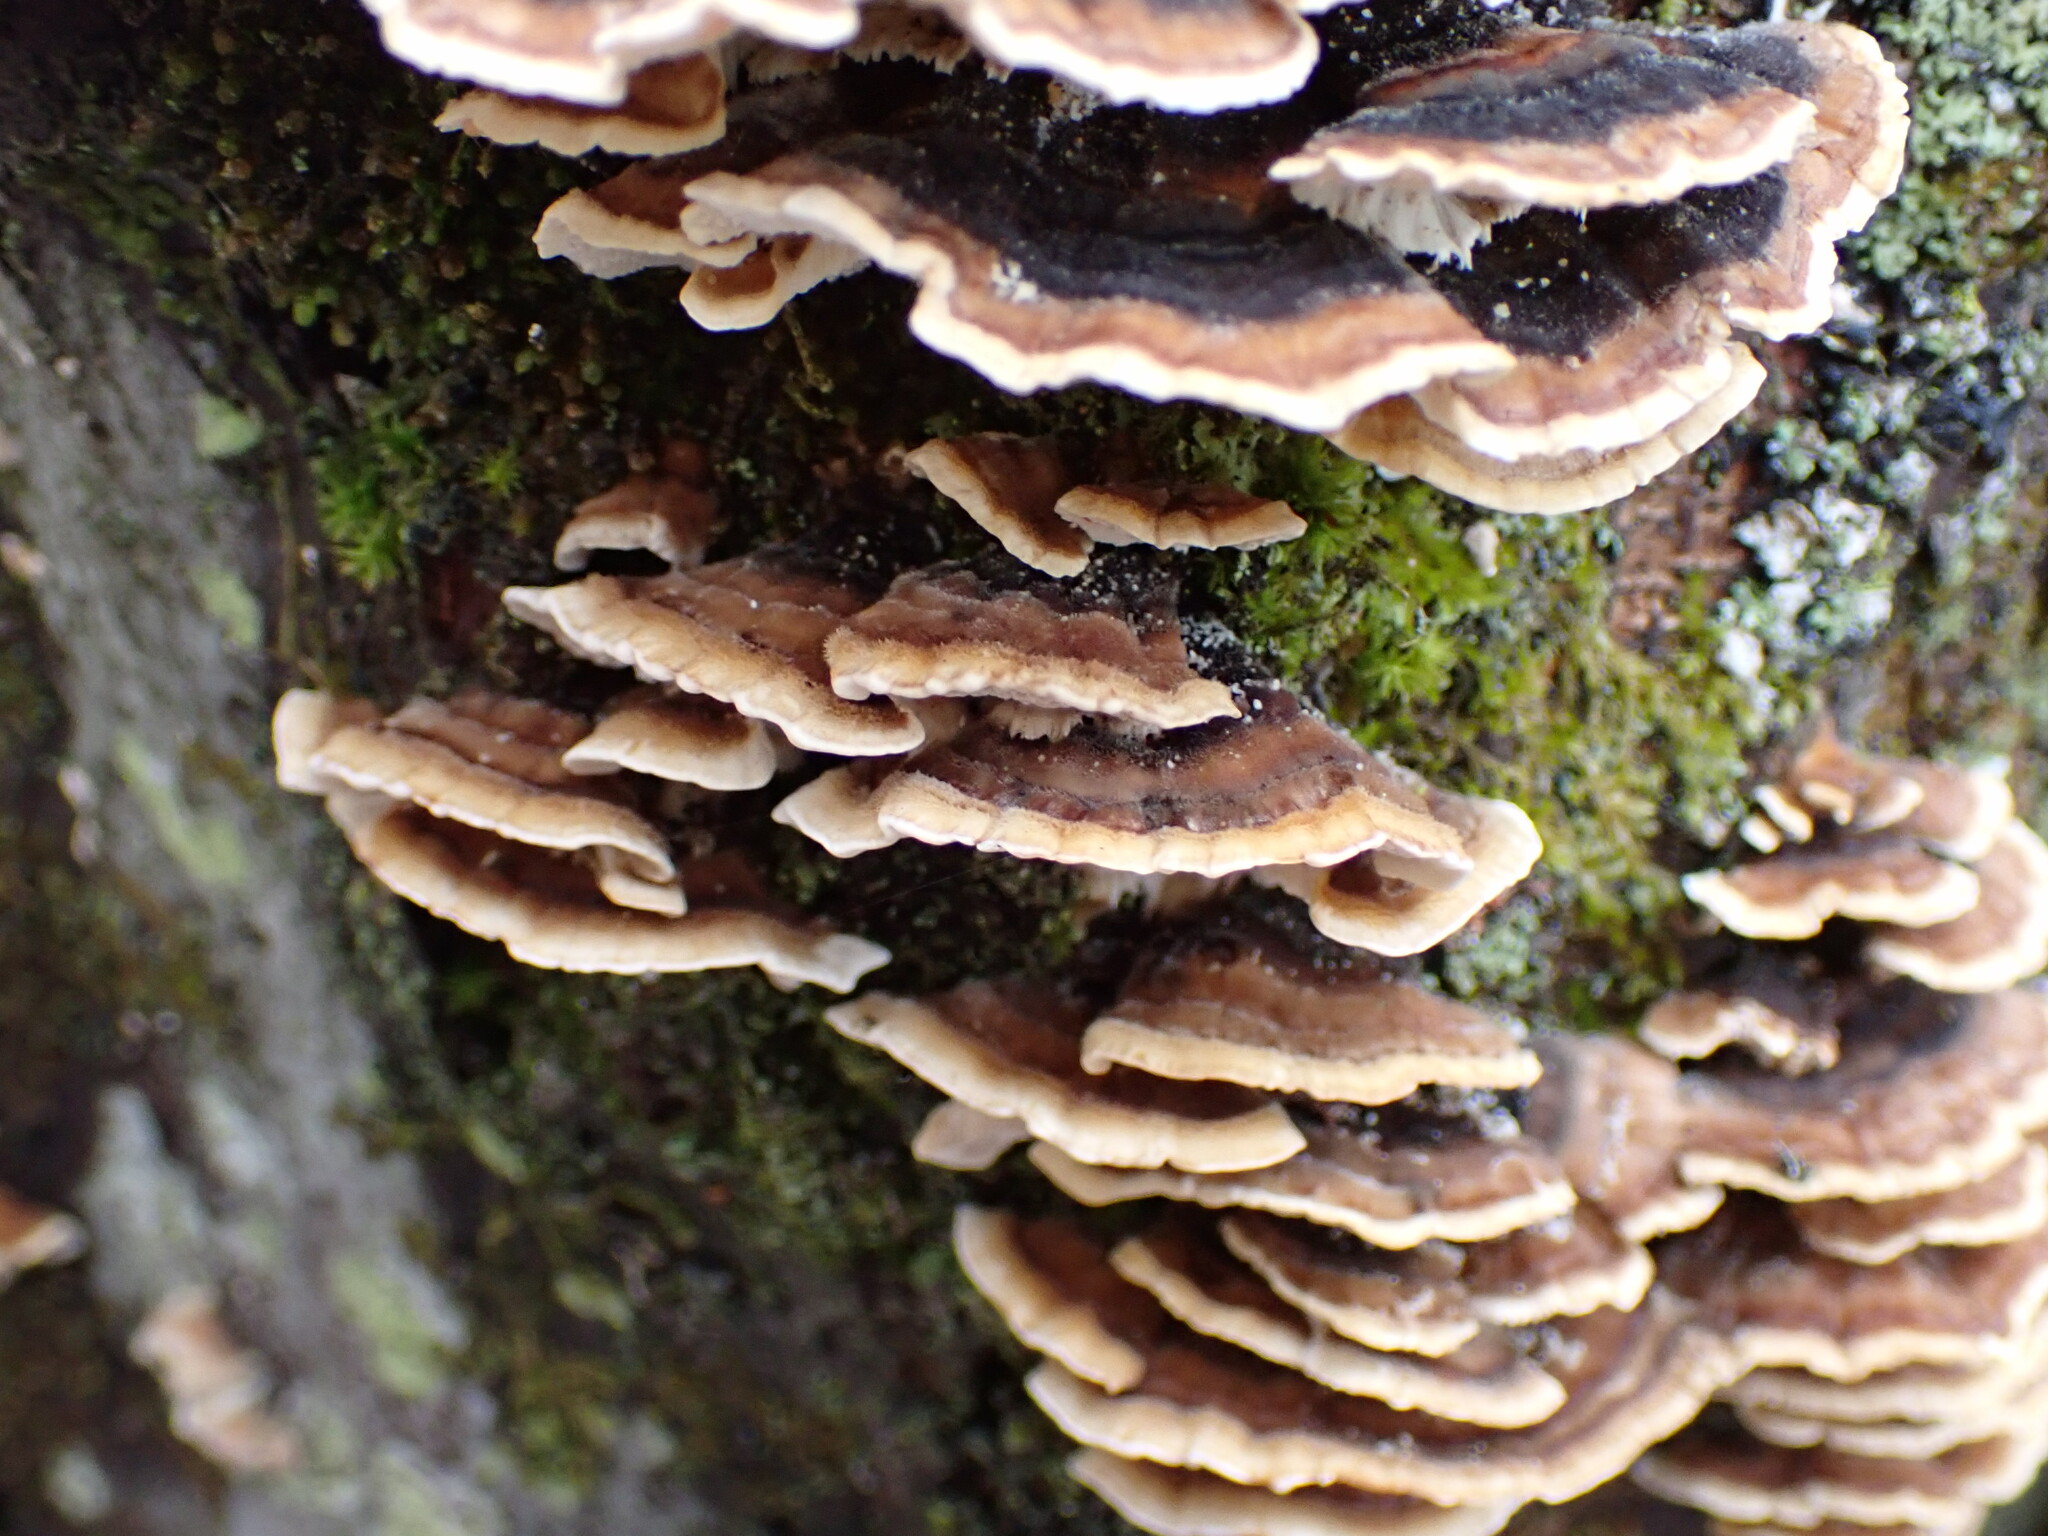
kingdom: Fungi
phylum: Basidiomycota
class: Agaricomycetes
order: Polyporales
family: Polyporaceae
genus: Trametes
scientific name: Trametes versicolor
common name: Turkeytail
